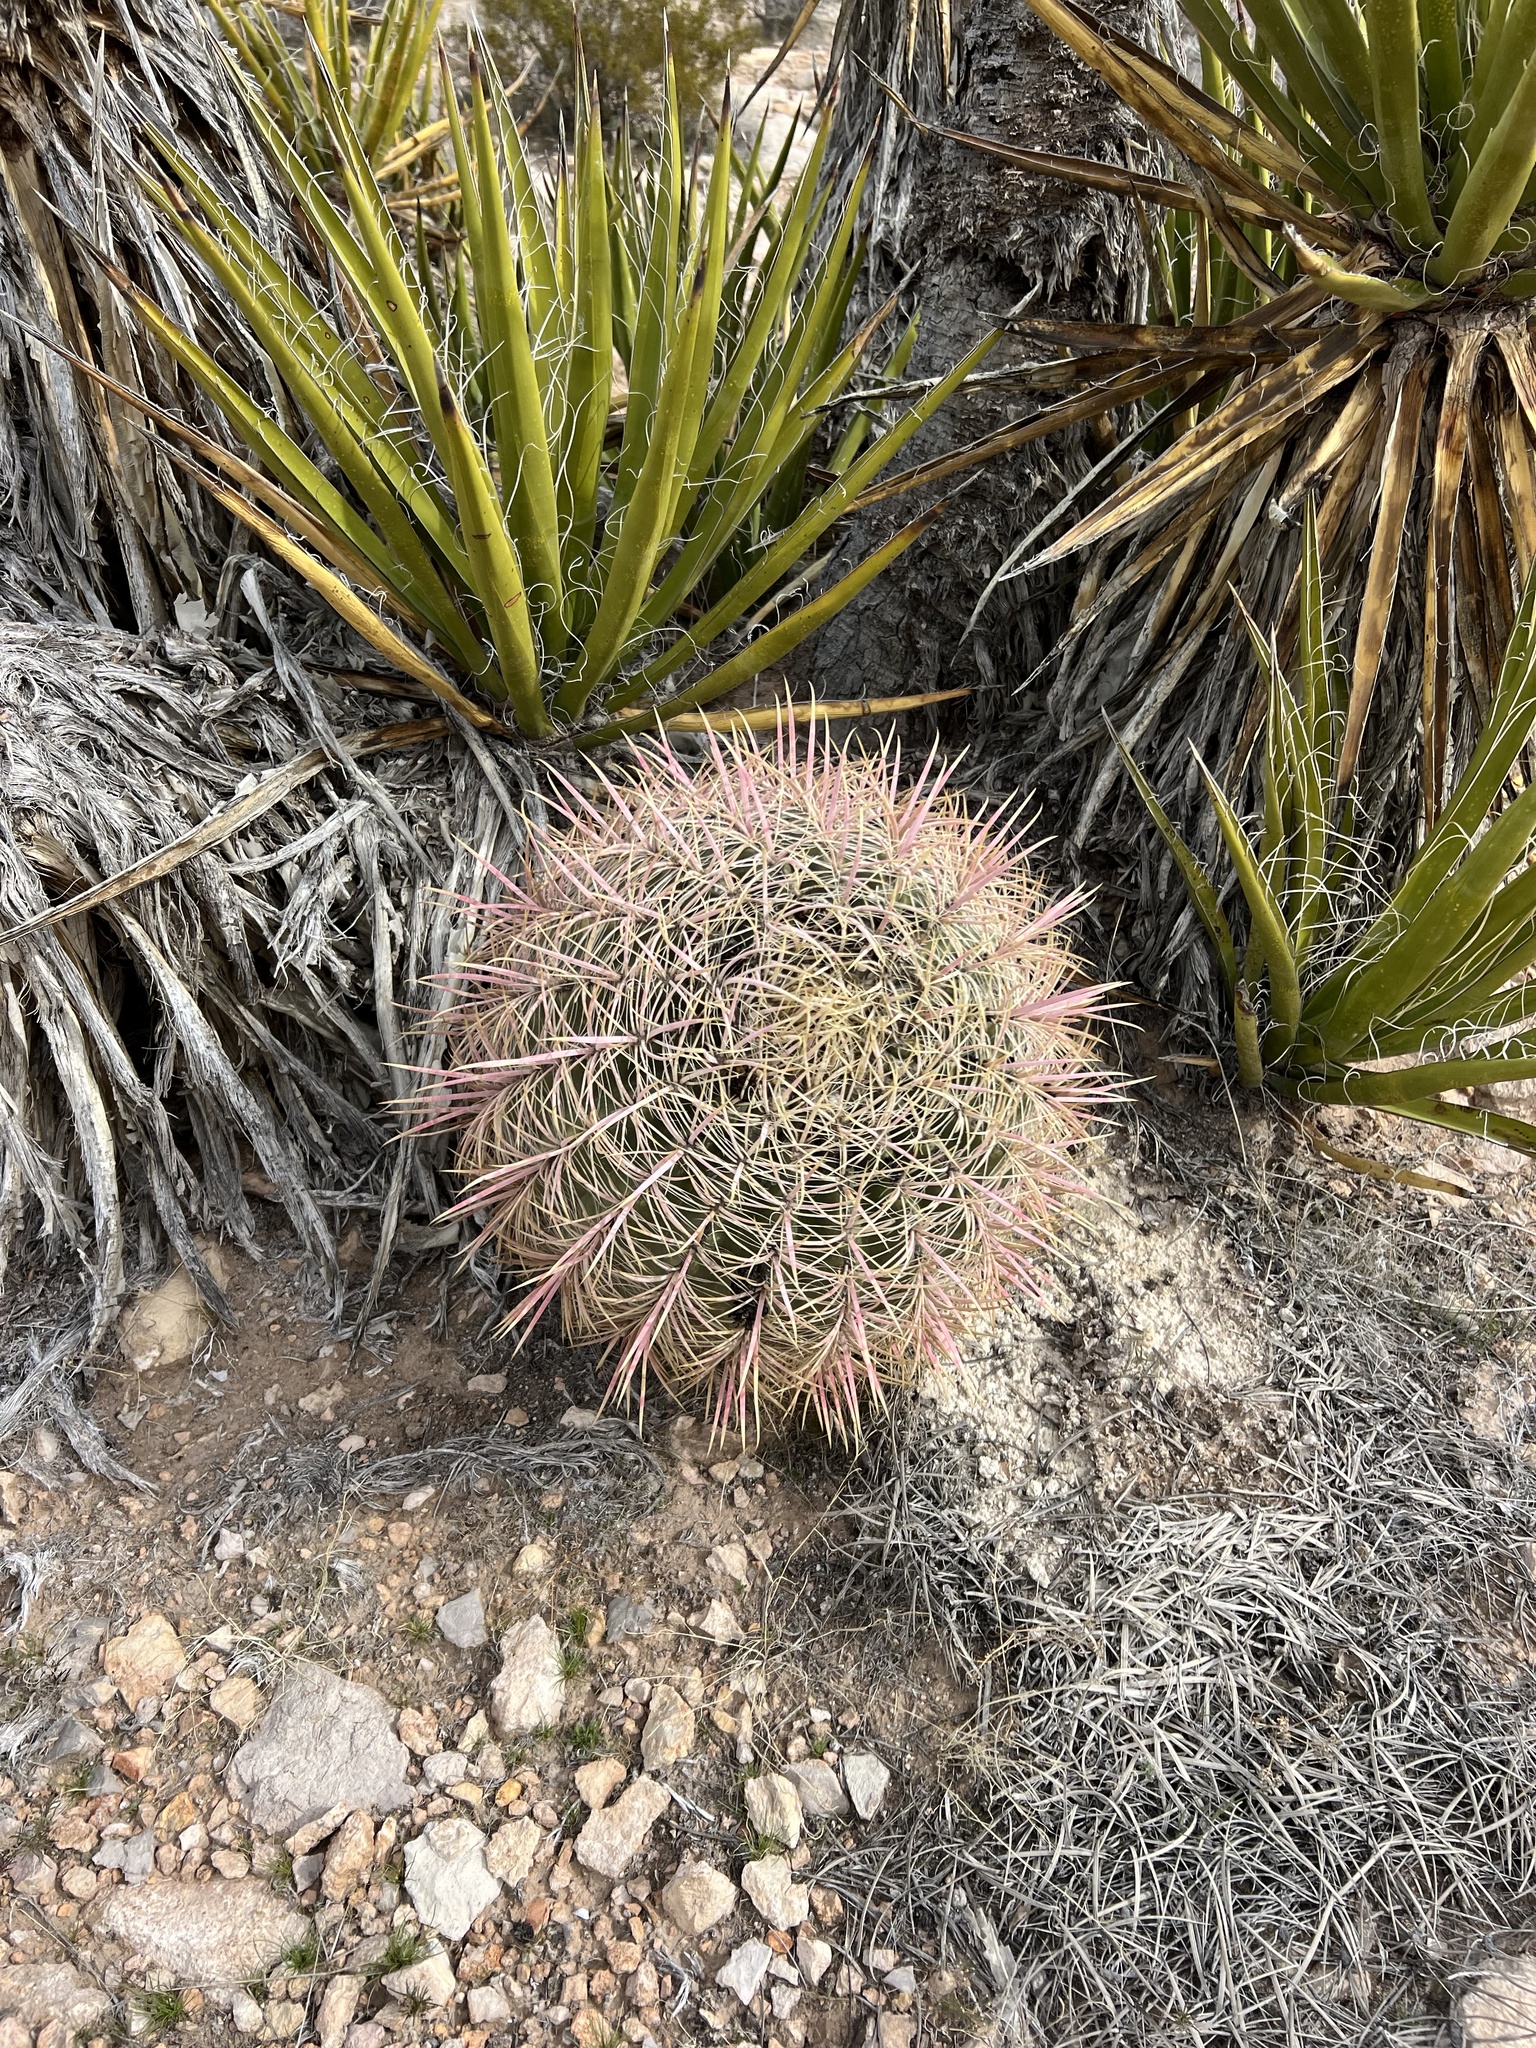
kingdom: Plantae
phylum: Tracheophyta
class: Magnoliopsida
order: Caryophyllales
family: Cactaceae
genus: Ferocactus
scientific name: Ferocactus cylindraceus
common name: California barrel cactus
